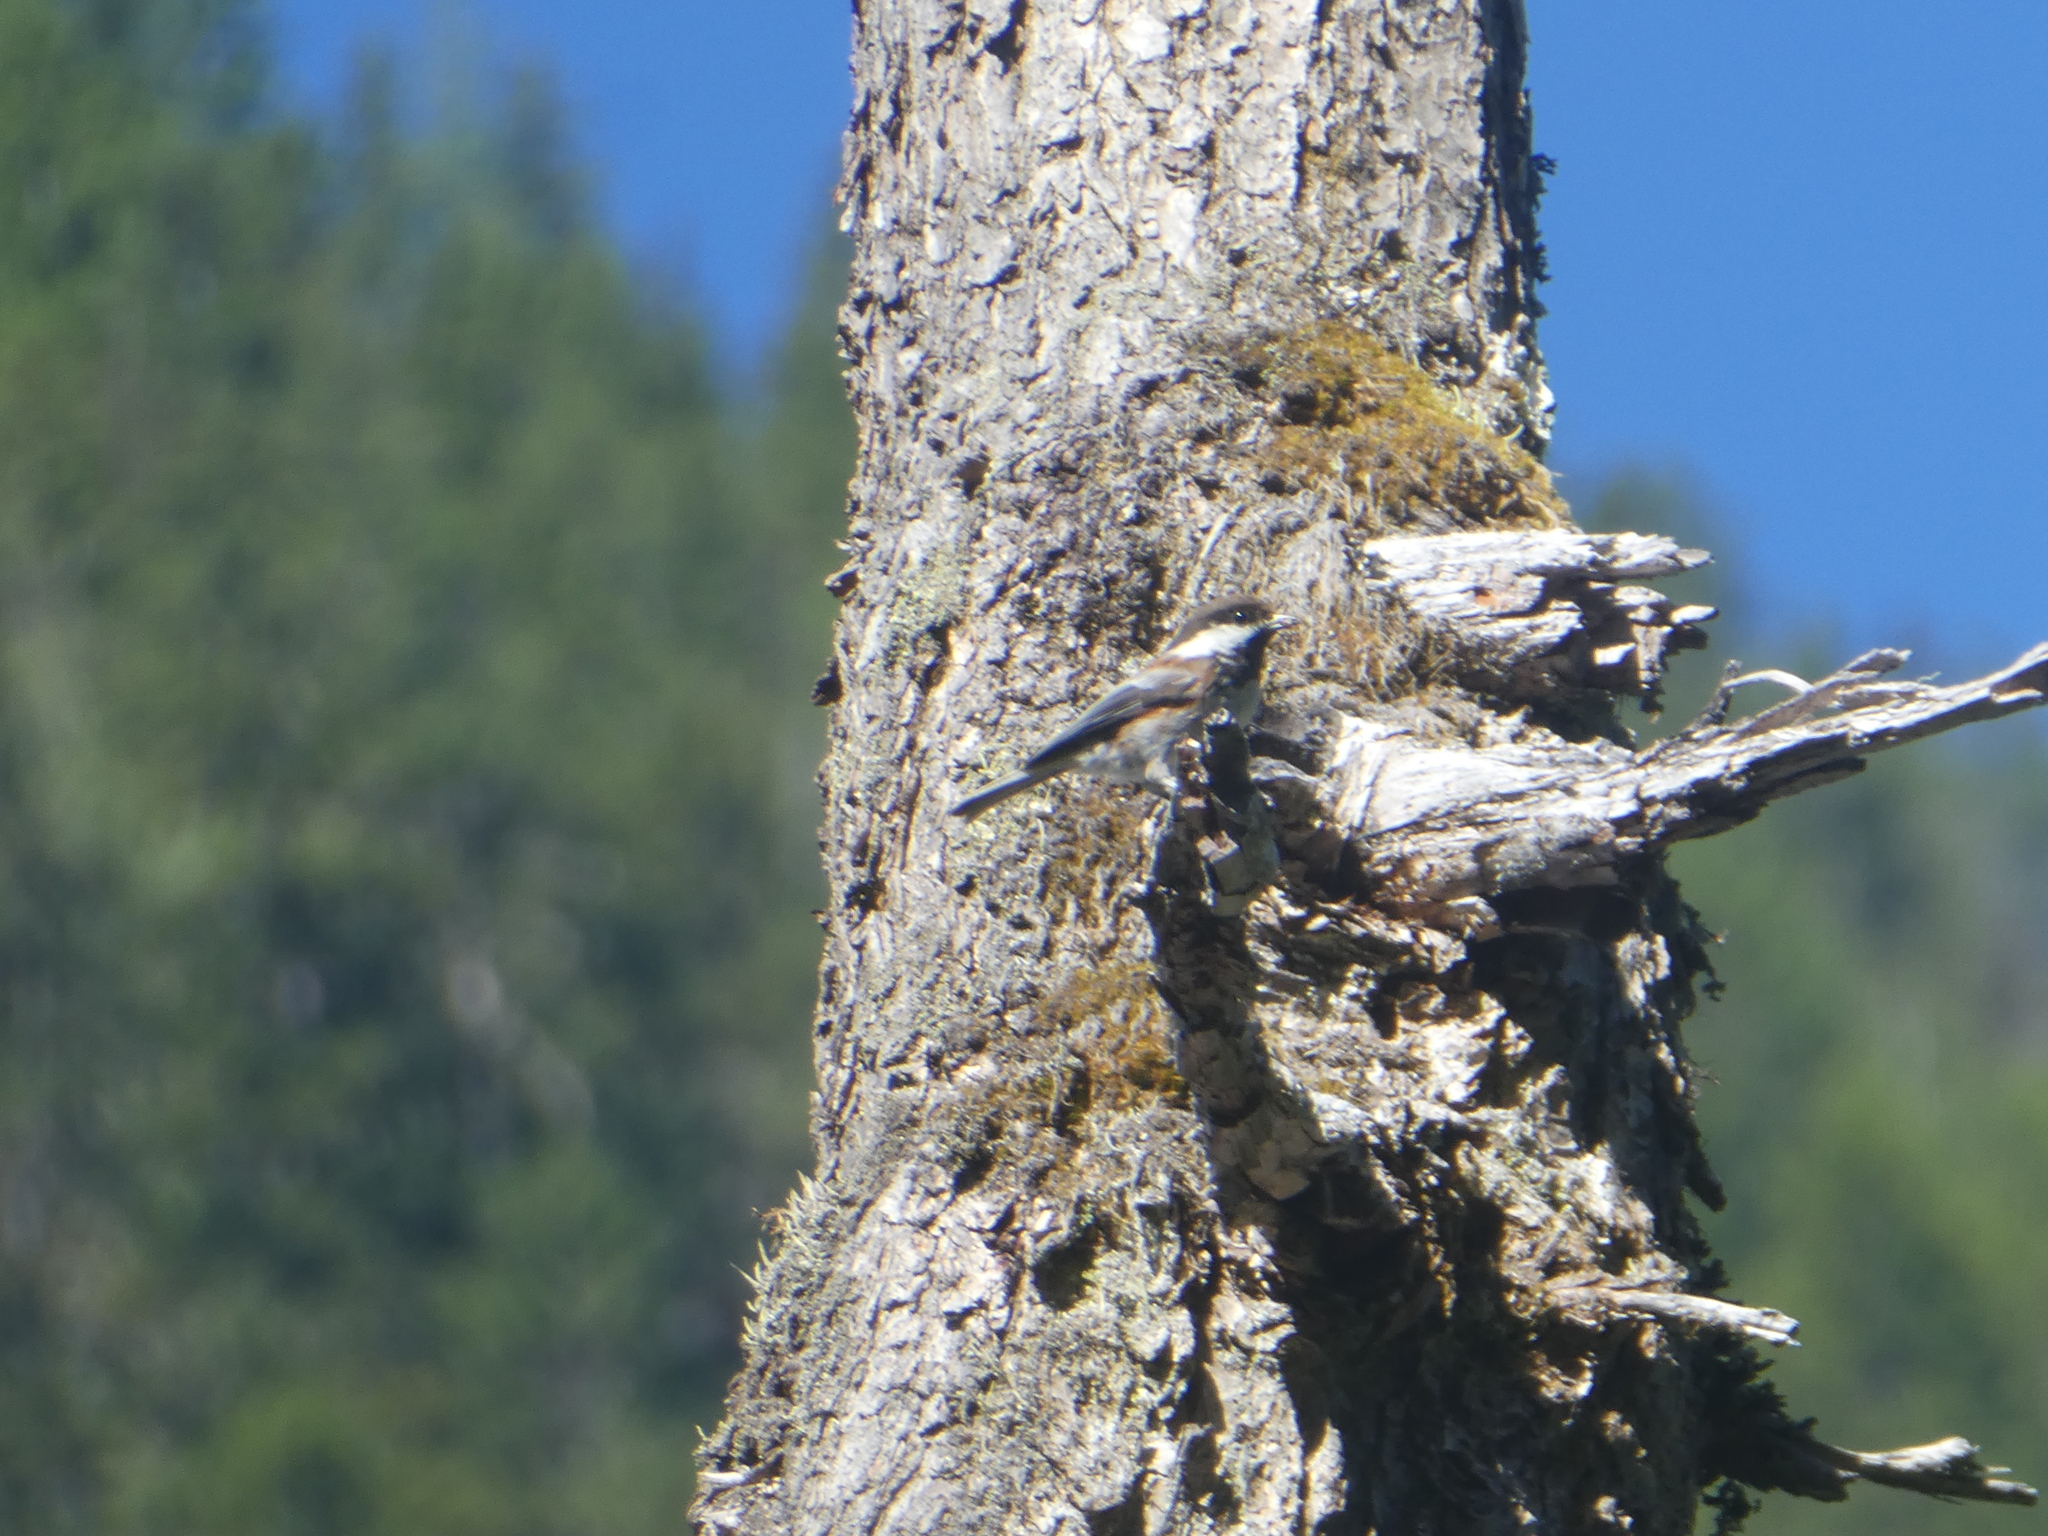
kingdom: Animalia
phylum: Chordata
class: Aves
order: Passeriformes
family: Paridae
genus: Poecile
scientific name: Poecile rufescens
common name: Chestnut-backed chickadee
